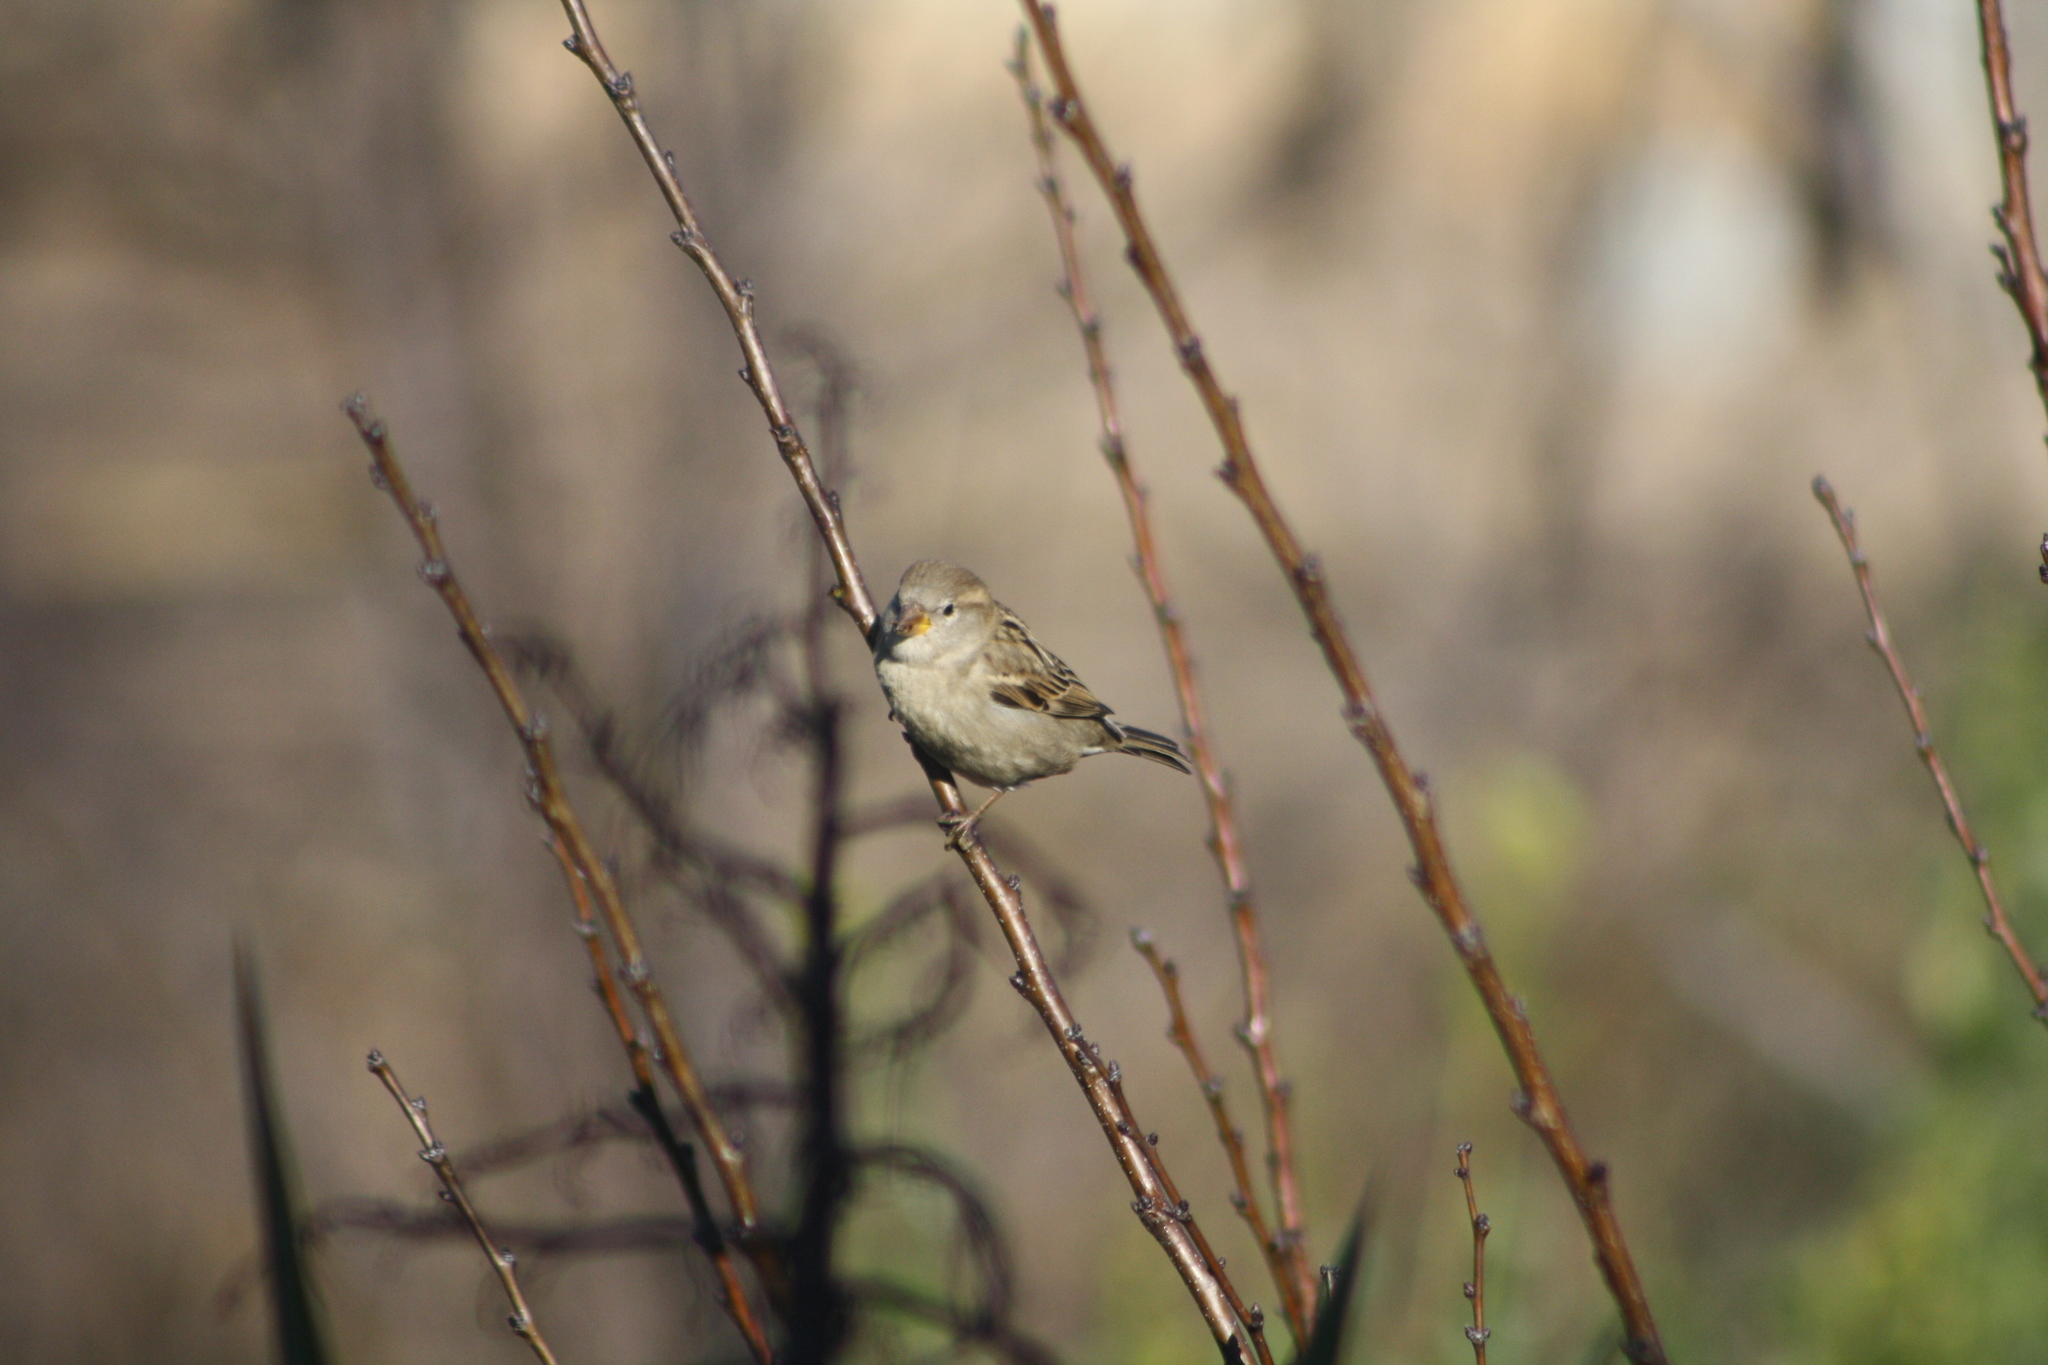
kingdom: Animalia
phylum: Chordata
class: Aves
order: Passeriformes
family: Passeridae
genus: Passer
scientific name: Passer domesticus
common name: House sparrow
